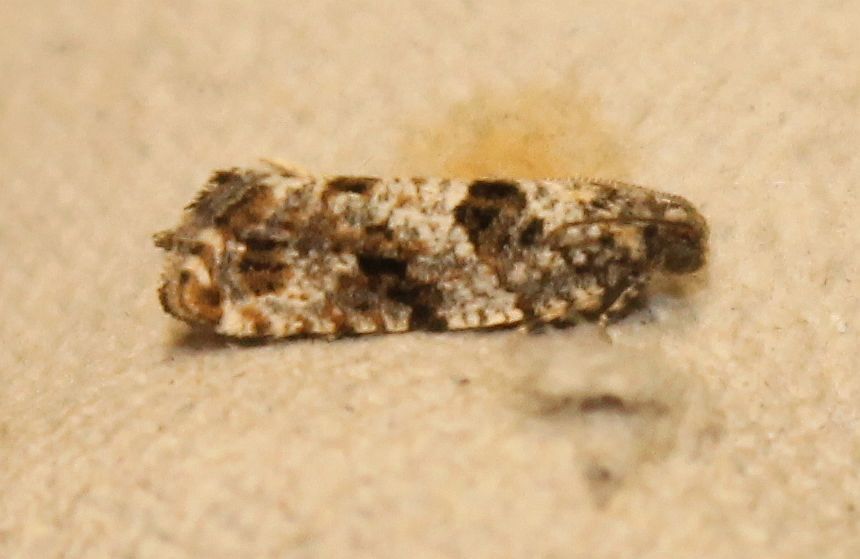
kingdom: Animalia
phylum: Arthropoda
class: Insecta
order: Lepidoptera
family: Tortricidae
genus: Gypsonoma
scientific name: Gypsonoma oppressana
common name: Poplar shoot
